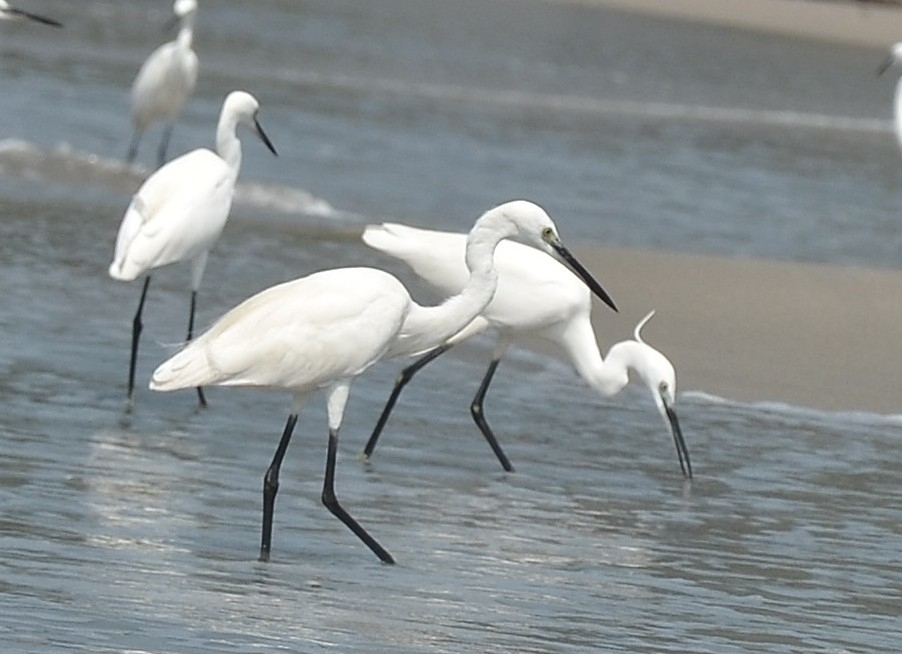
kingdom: Animalia
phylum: Chordata
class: Aves
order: Pelecaniformes
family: Ardeidae
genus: Egretta
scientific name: Egretta garzetta
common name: Little egret
